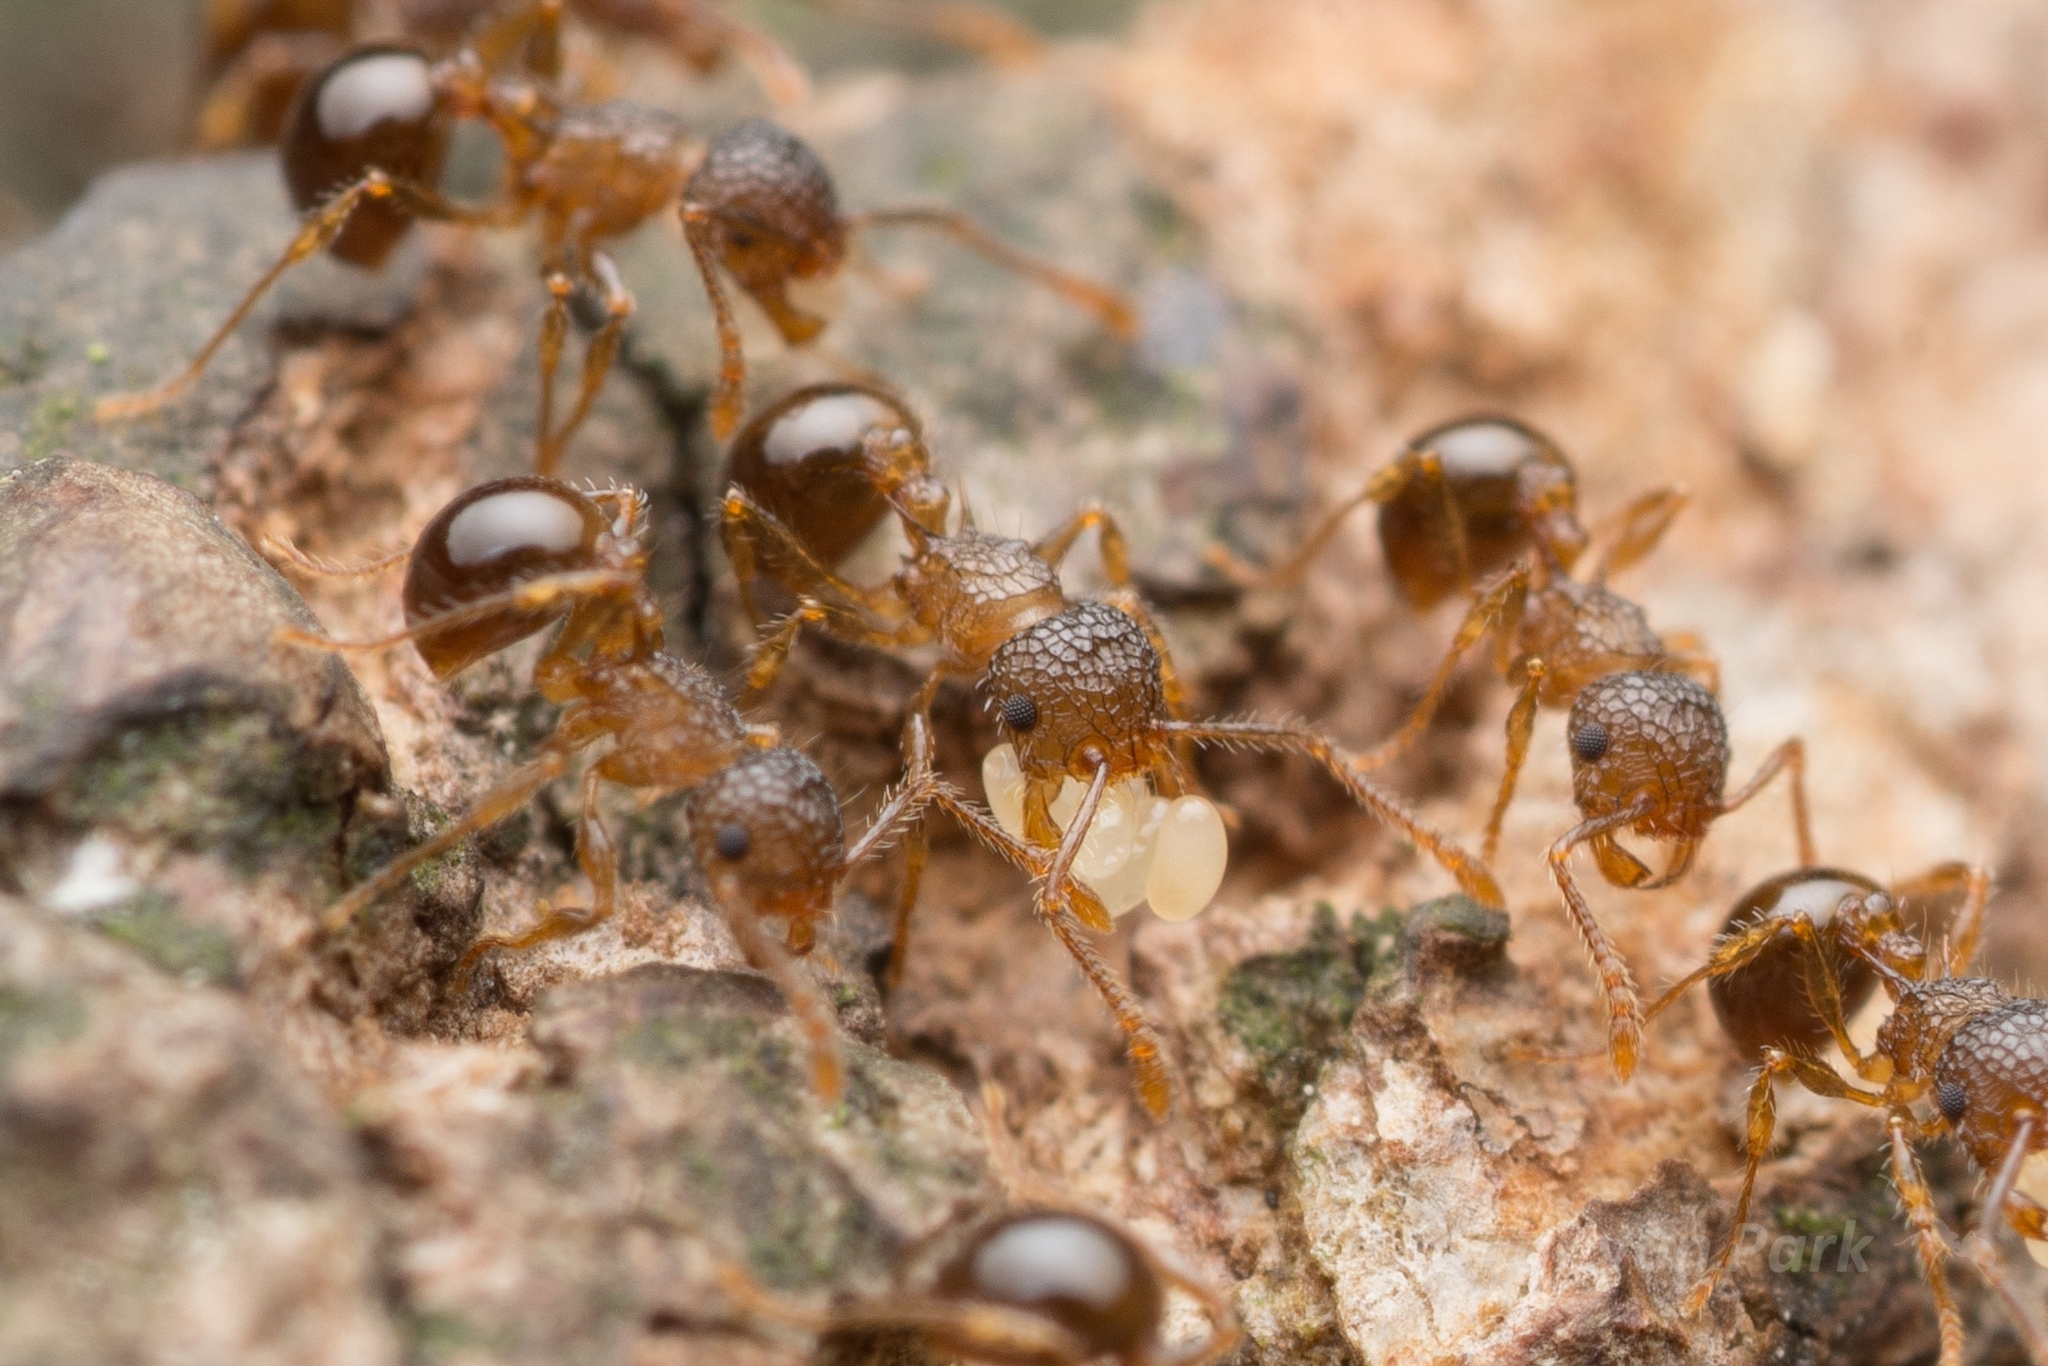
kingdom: Animalia
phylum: Arthropoda
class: Insecta
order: Hymenoptera
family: Formicidae
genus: Pristomyrmex
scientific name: Pristomyrmex punctatus
